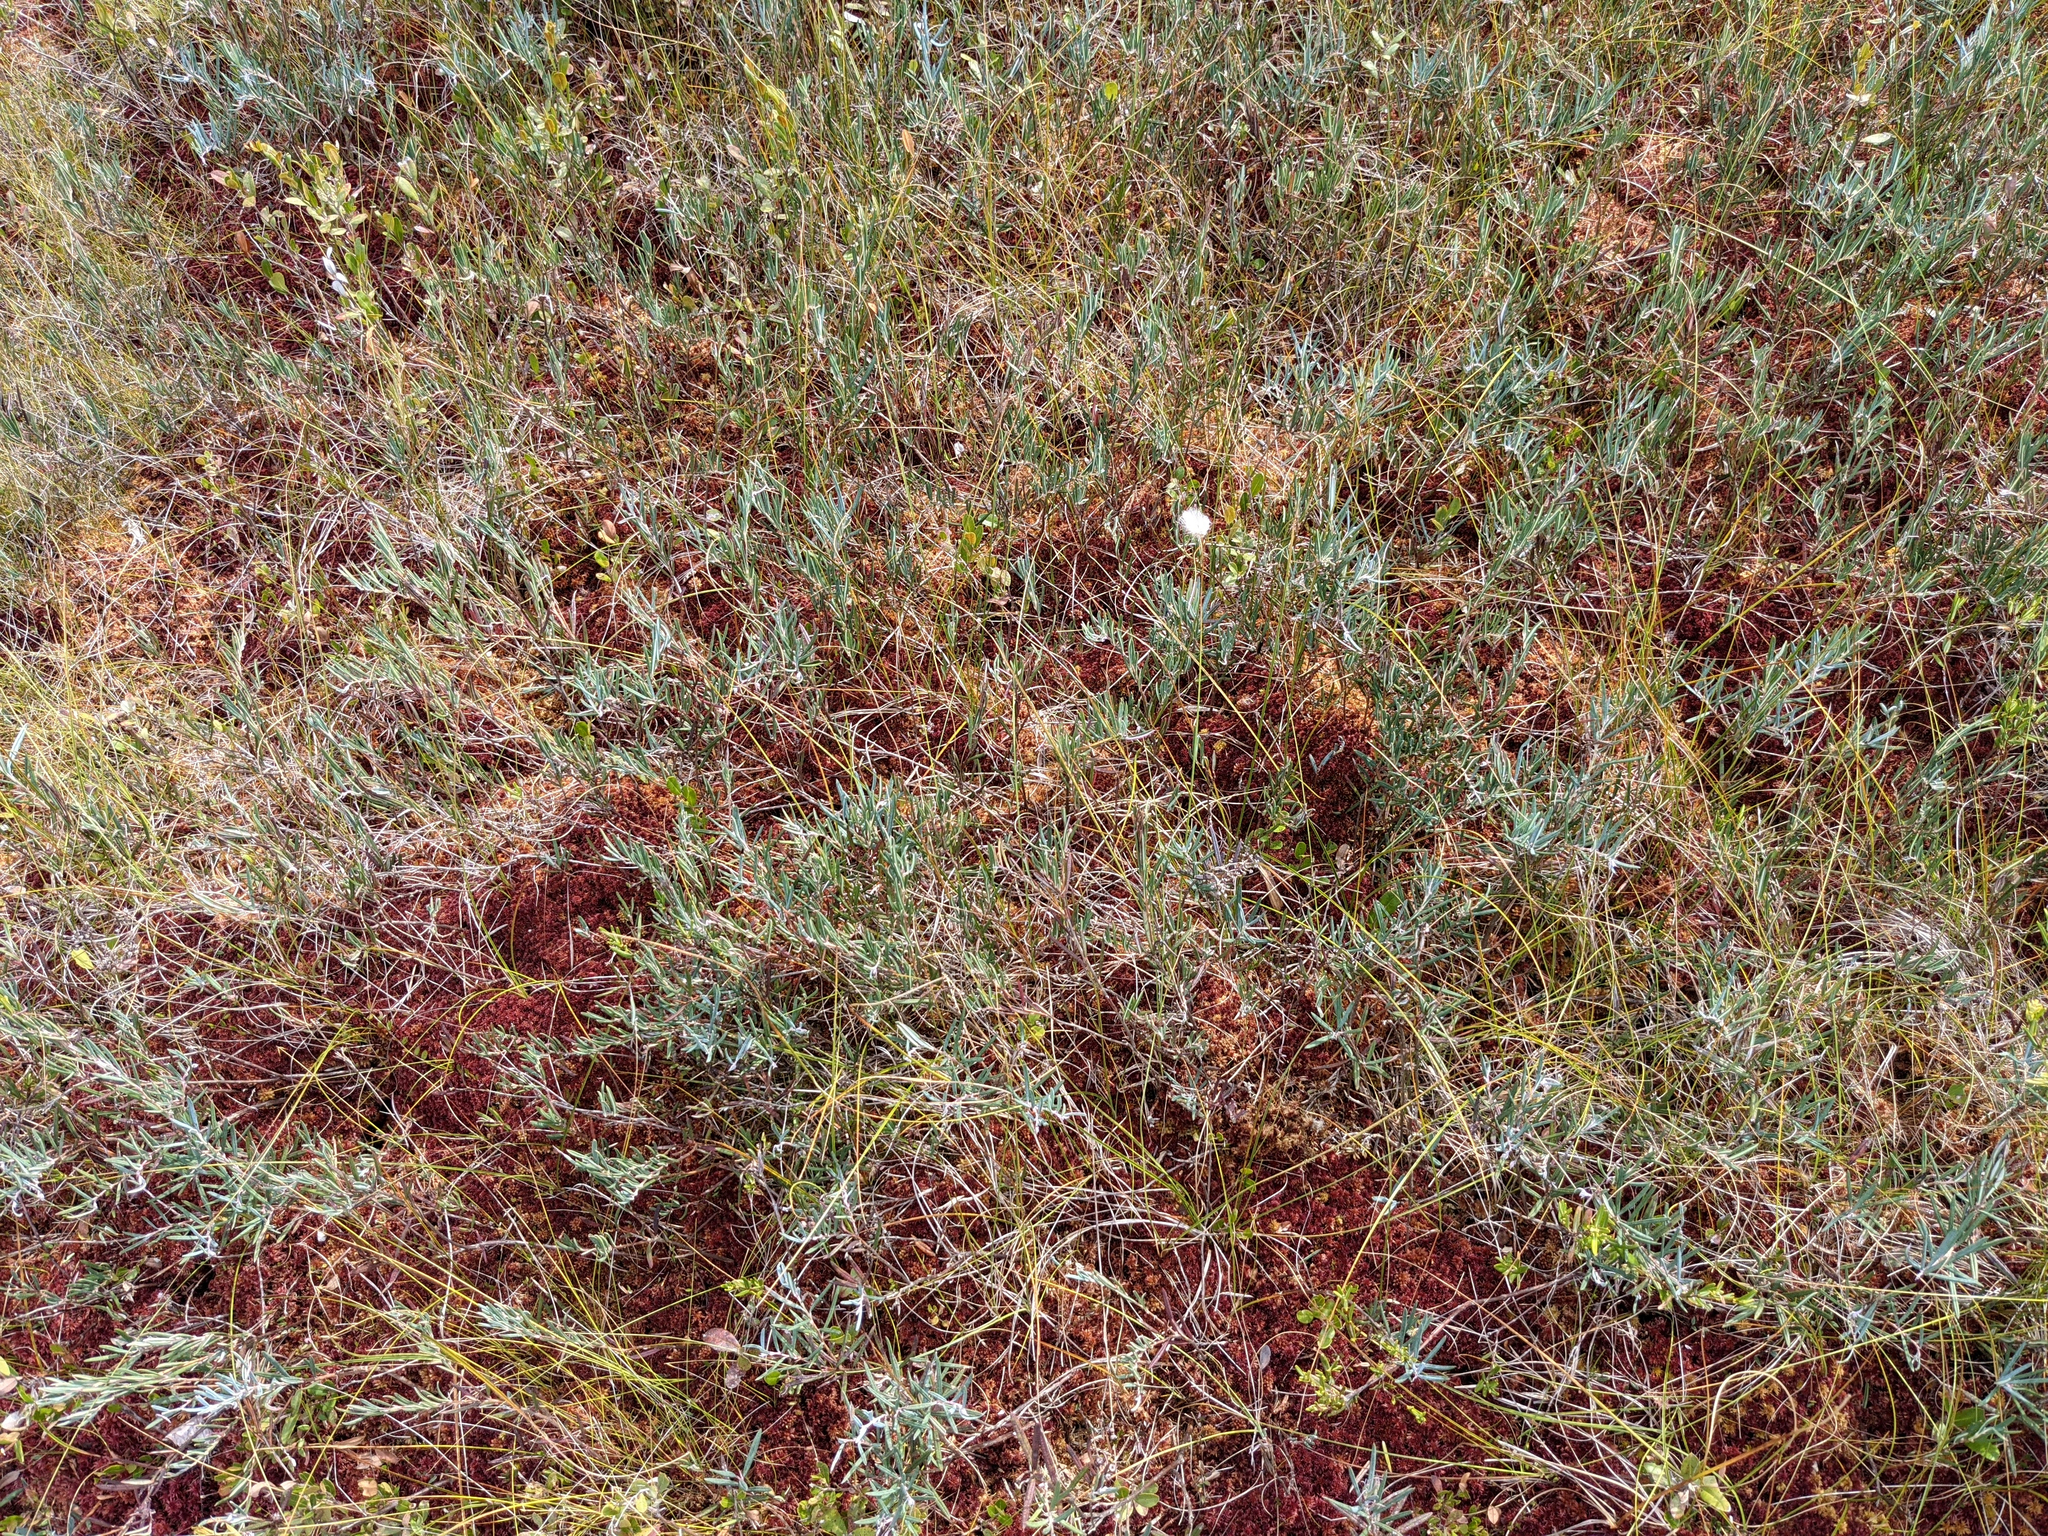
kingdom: Plantae
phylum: Tracheophyta
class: Magnoliopsida
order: Ericales
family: Ericaceae
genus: Andromeda
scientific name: Andromeda polifolia
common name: Bog-rosemary
